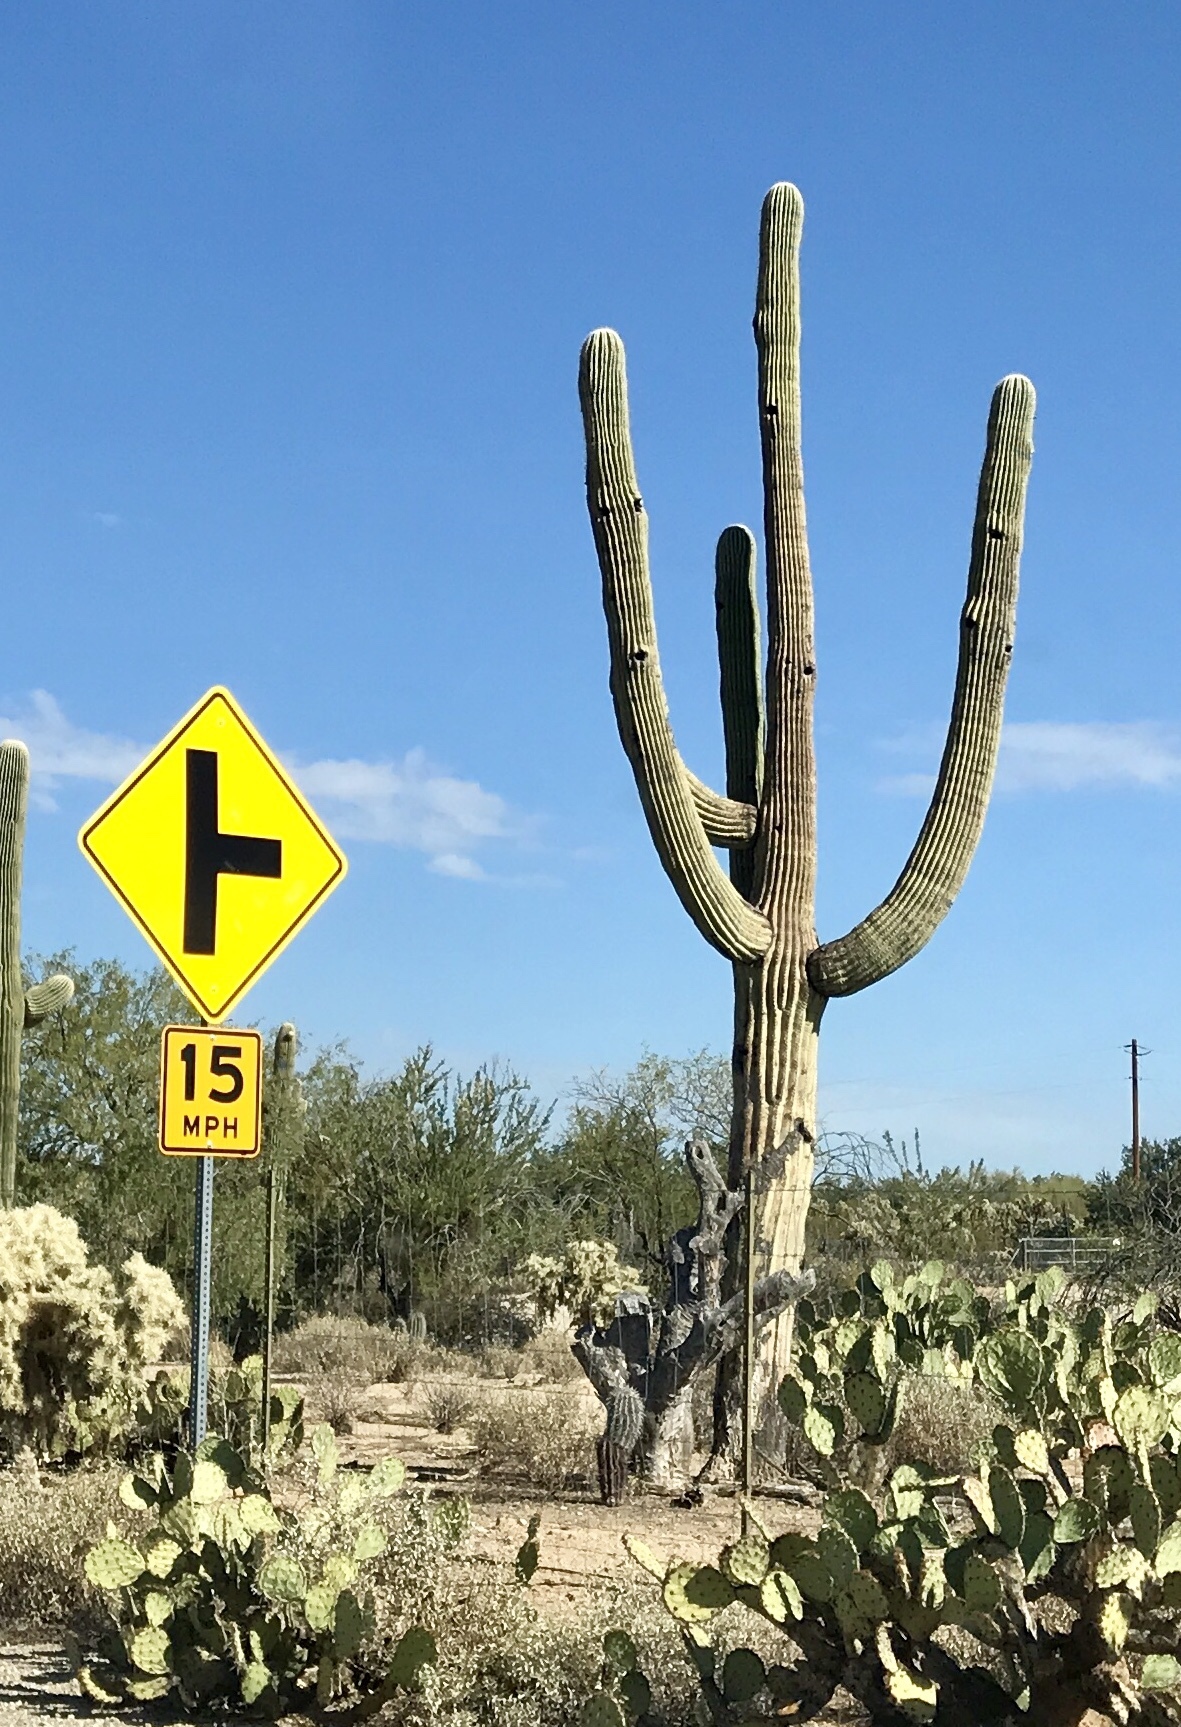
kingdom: Plantae
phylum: Tracheophyta
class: Magnoliopsida
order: Caryophyllales
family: Cactaceae
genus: Carnegiea
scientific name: Carnegiea gigantea
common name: Saguaro
